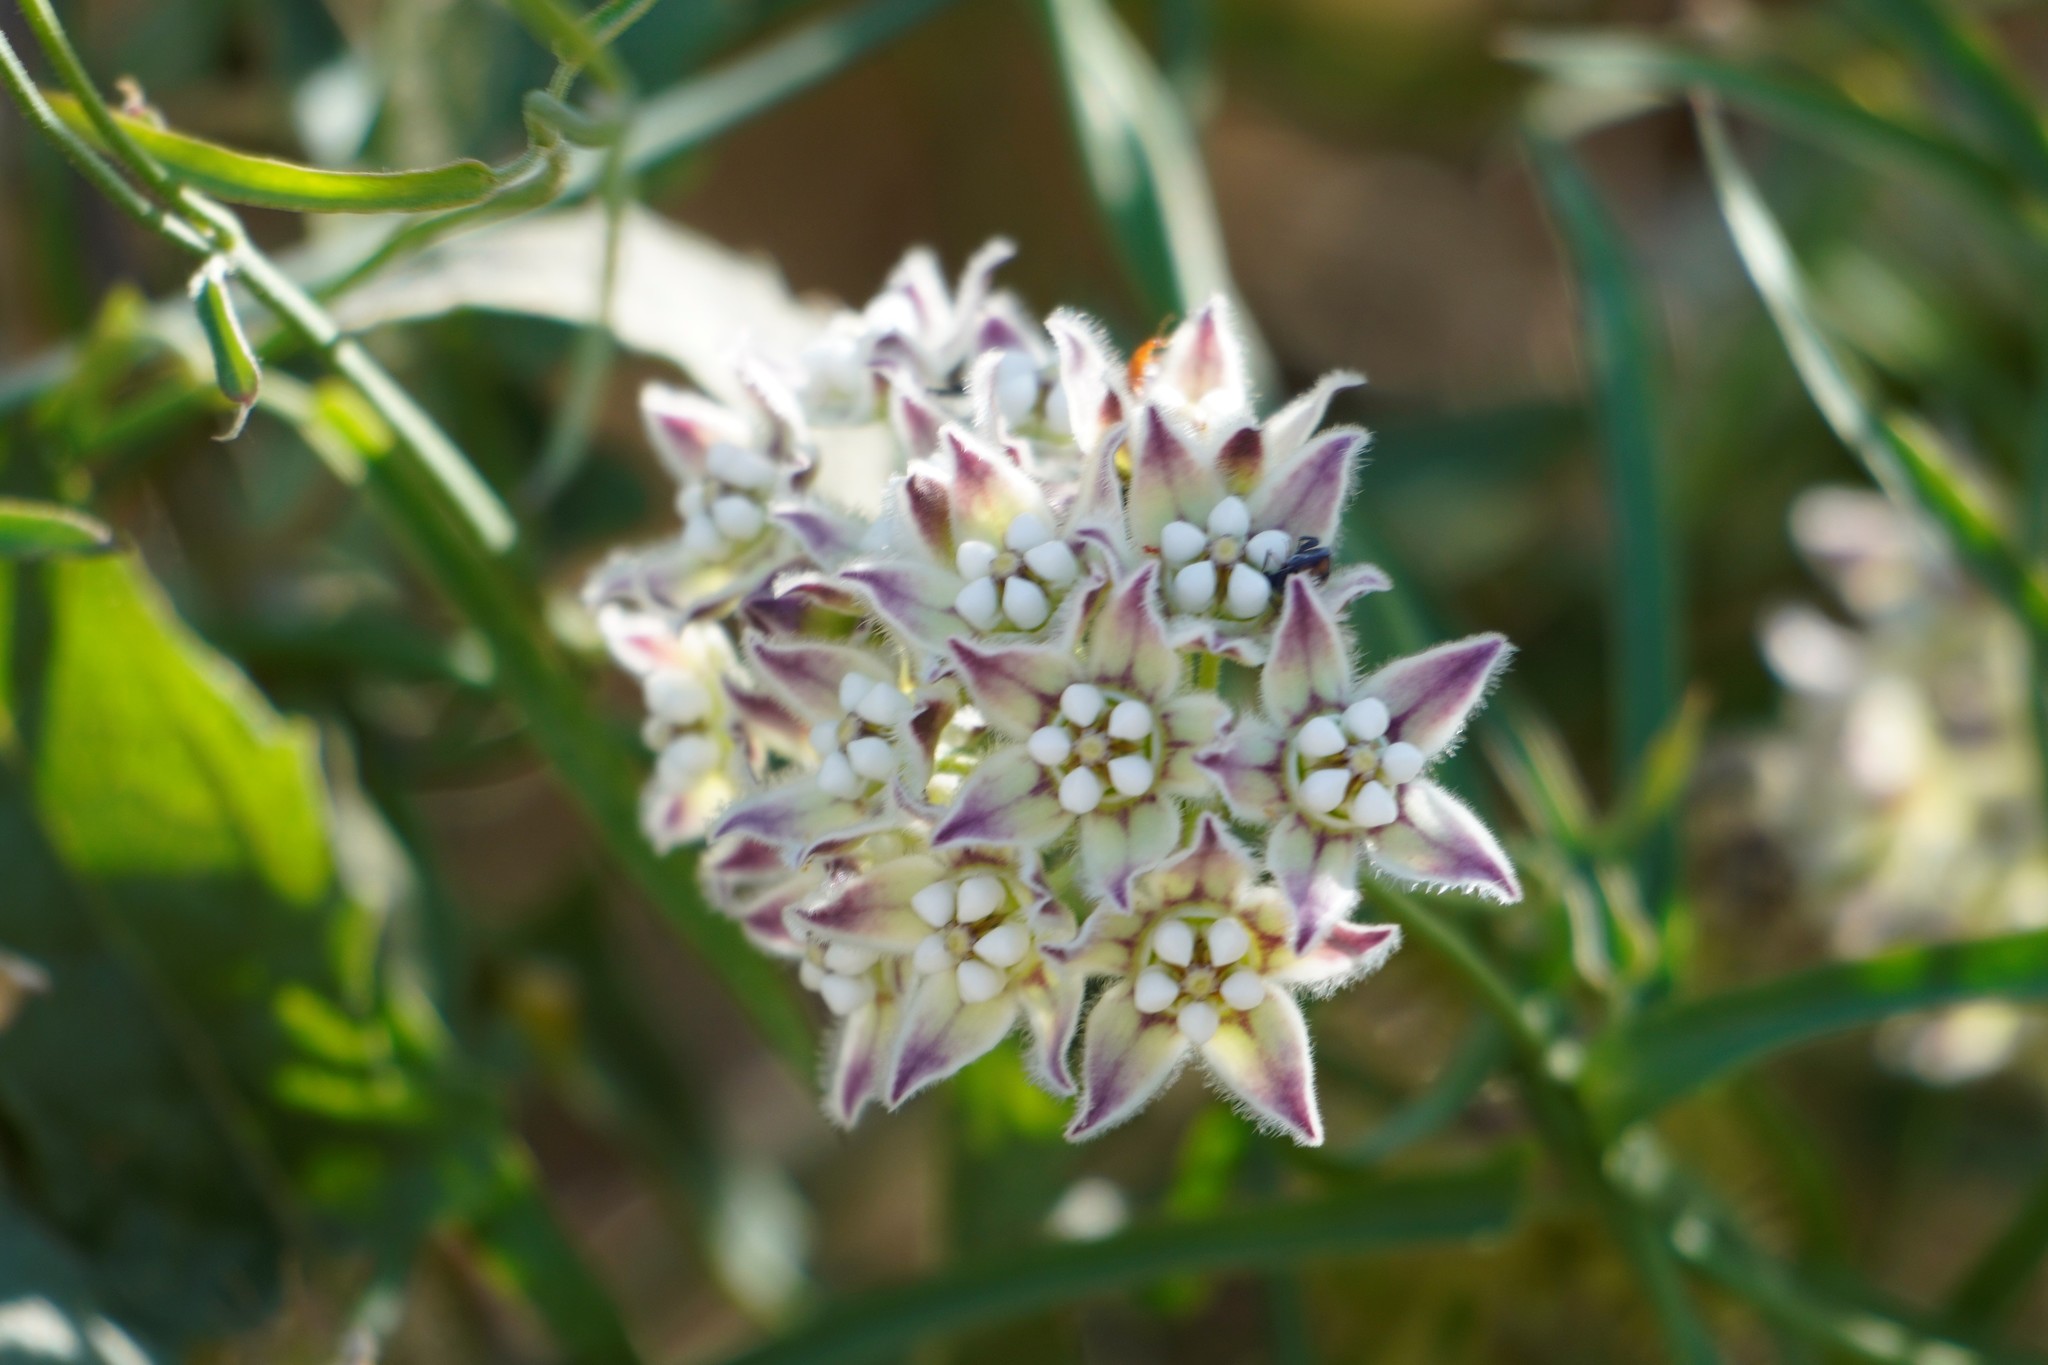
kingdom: Plantae
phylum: Tracheophyta
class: Magnoliopsida
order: Gentianales
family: Apocynaceae
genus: Funastrum
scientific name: Funastrum heterophyllum
